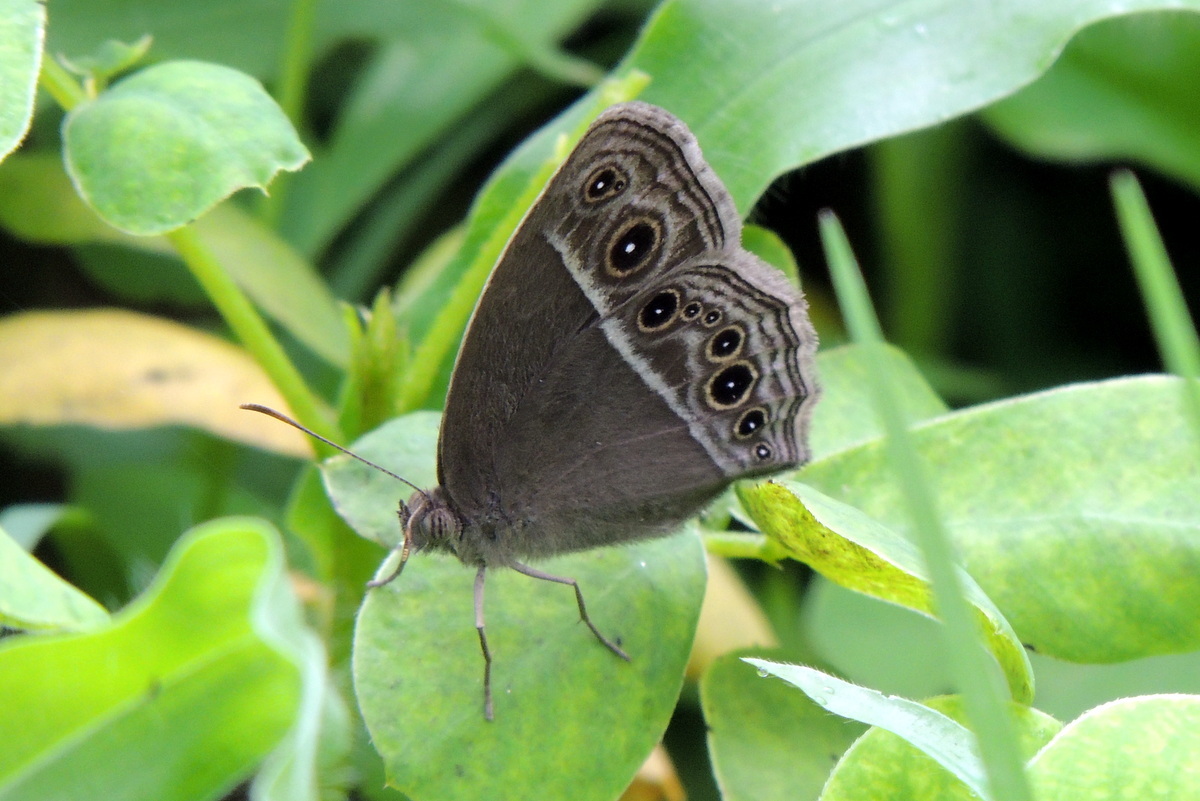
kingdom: Animalia
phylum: Arthropoda
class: Insecta
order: Lepidoptera
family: Nymphalidae
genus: Mycalesis
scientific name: Mycalesis mineus
